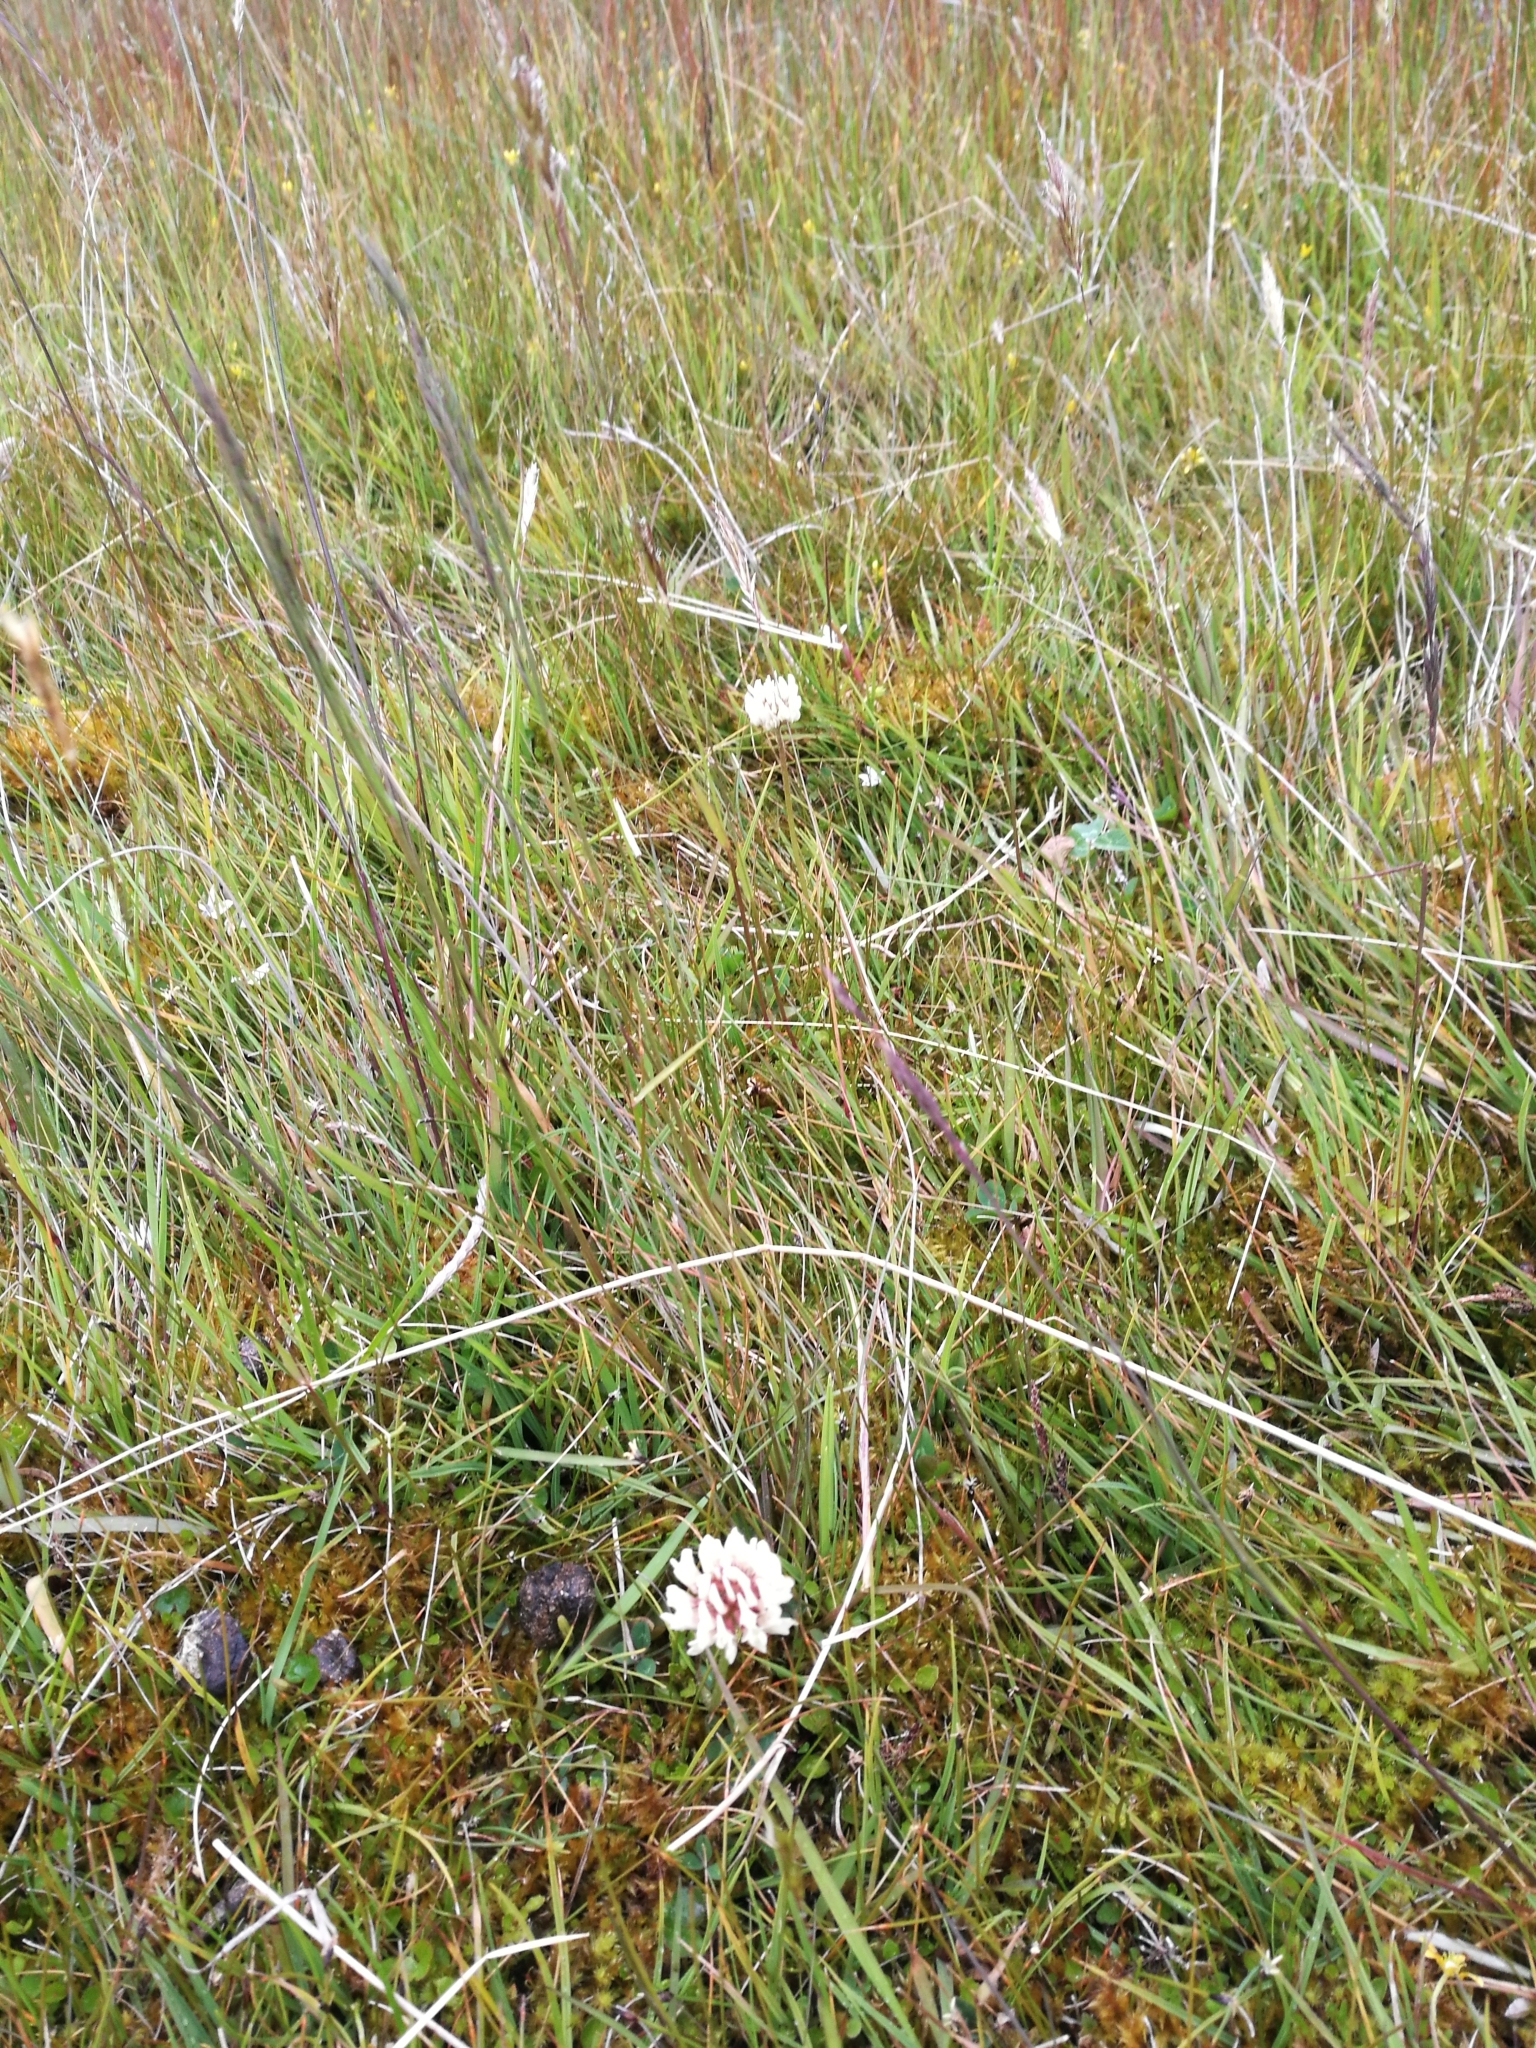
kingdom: Plantae
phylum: Tracheophyta
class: Magnoliopsida
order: Fabales
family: Fabaceae
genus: Trifolium
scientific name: Trifolium repens
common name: White clover
